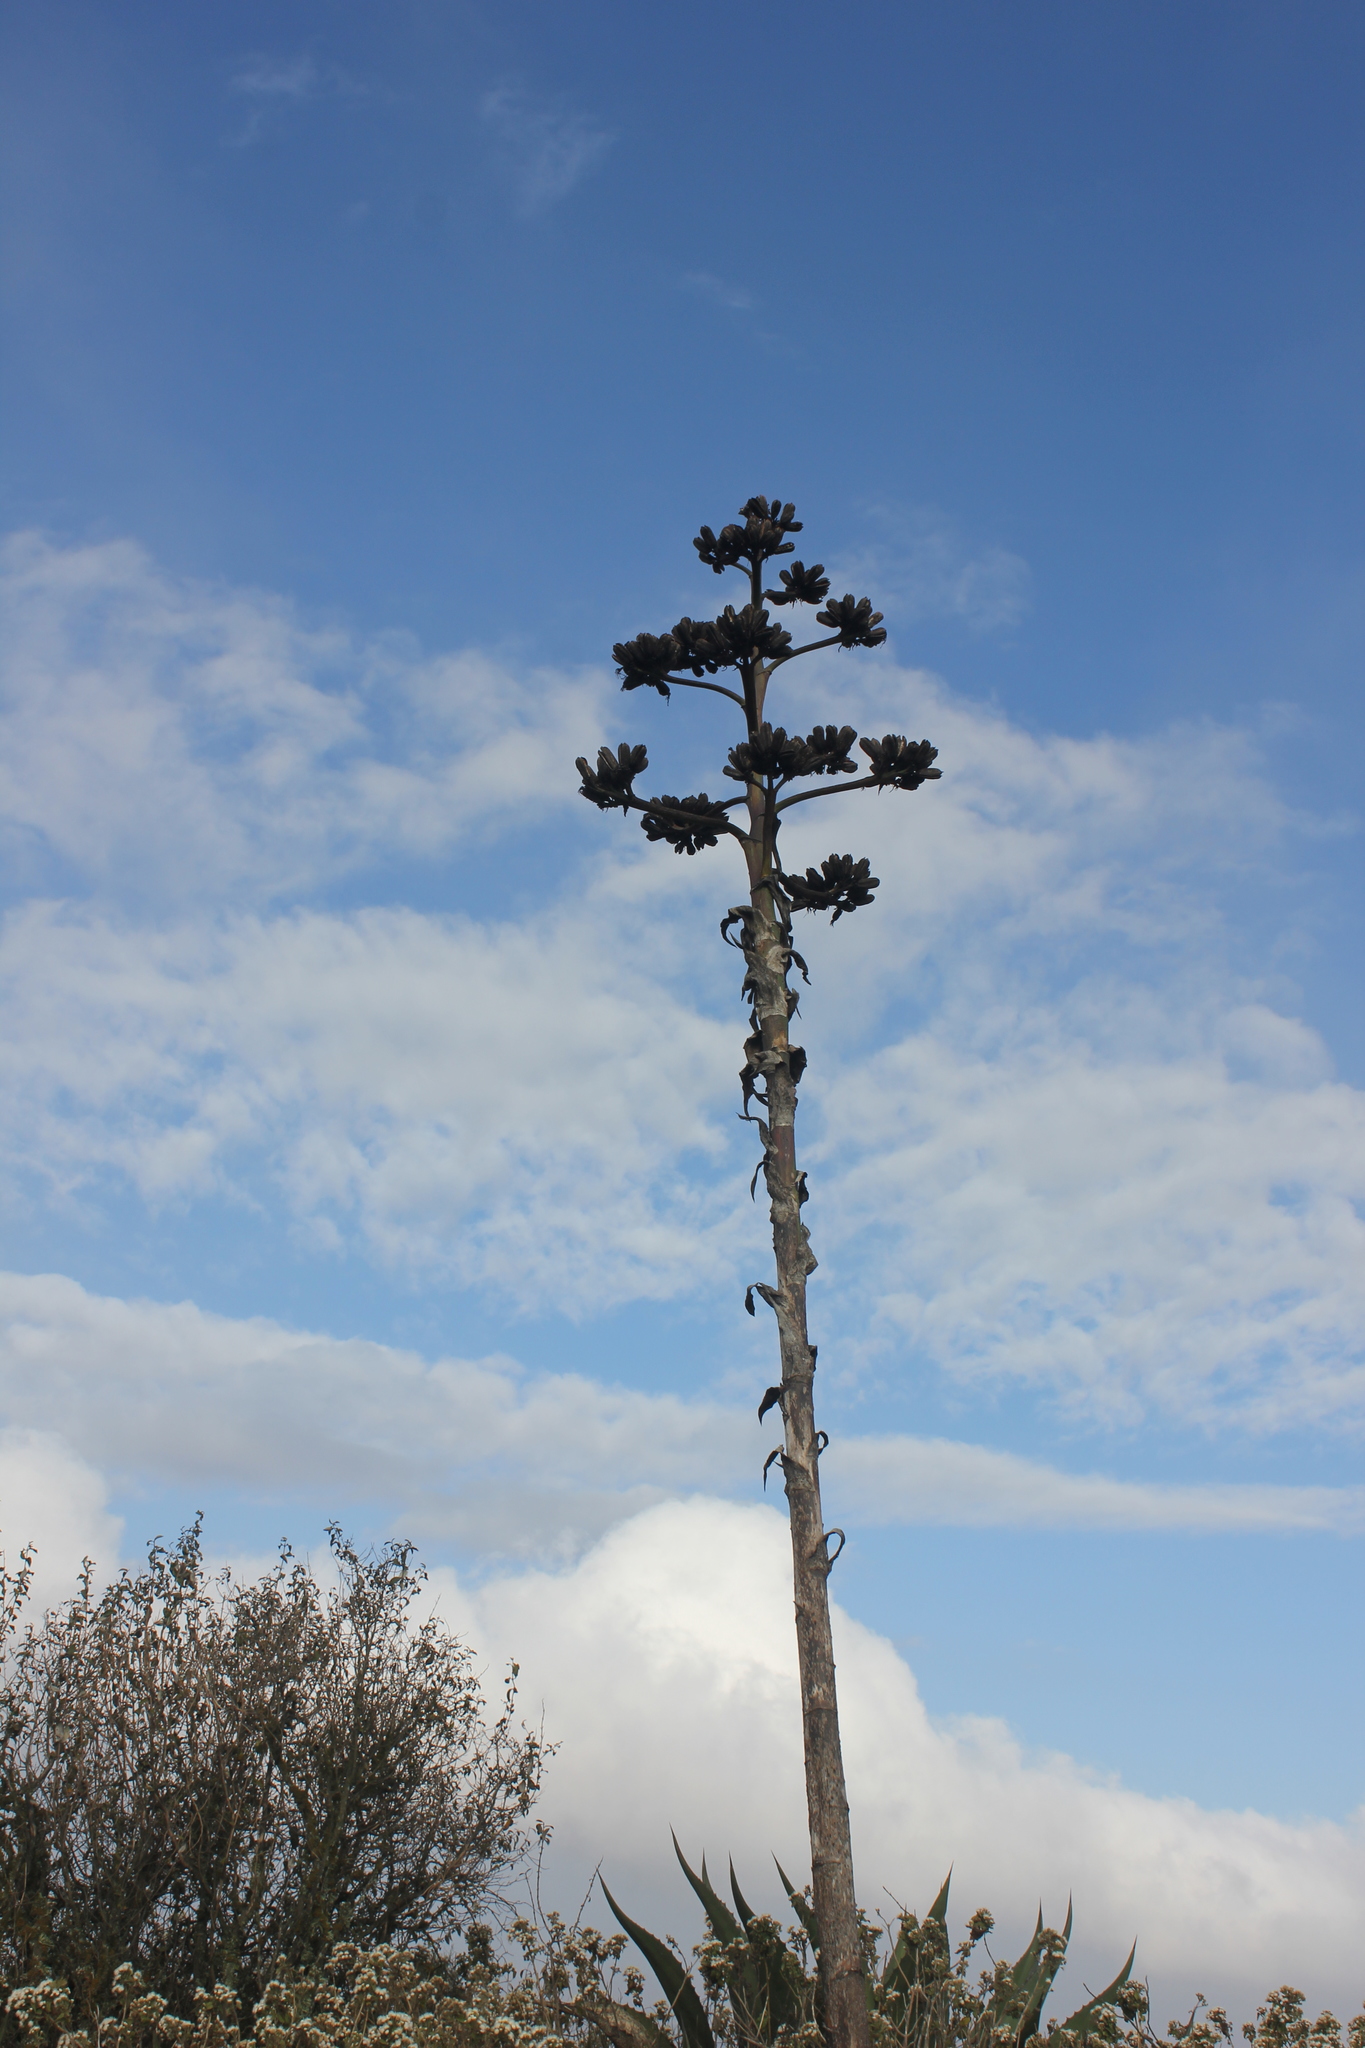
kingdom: Plantae
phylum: Tracheophyta
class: Liliopsida
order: Asparagales
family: Asparagaceae
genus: Agave
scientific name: Agave salmiana
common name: Pulque agave
